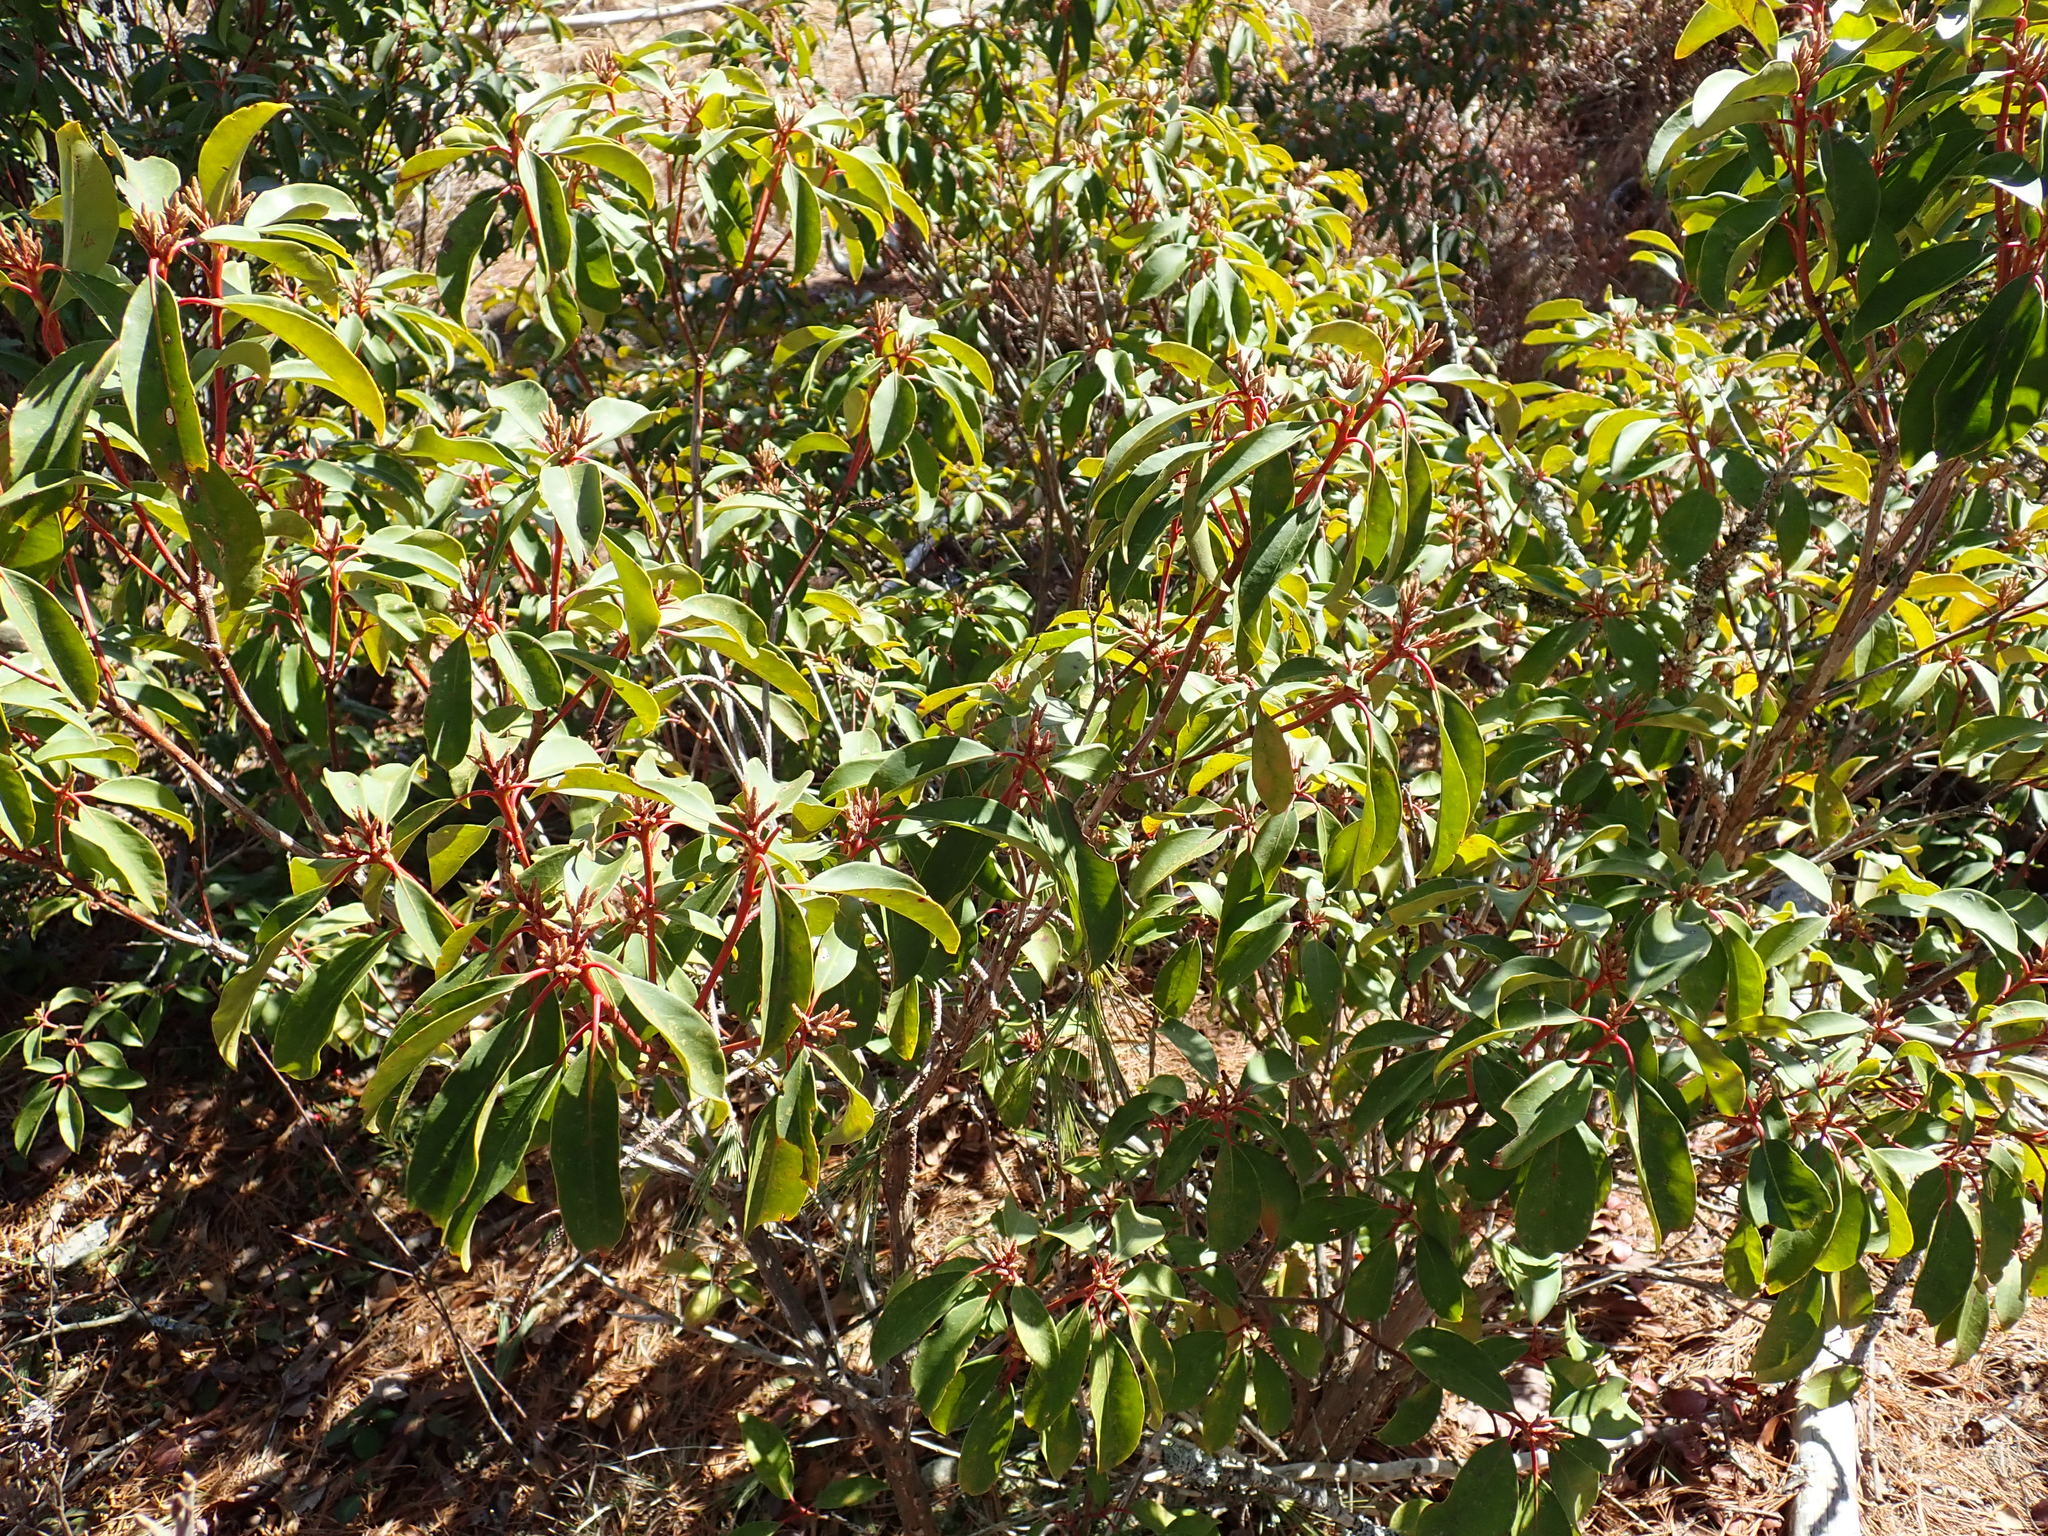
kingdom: Plantae
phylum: Tracheophyta
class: Magnoliopsida
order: Ericales
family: Ericaceae
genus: Kalmia
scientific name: Kalmia latifolia
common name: Mountain-laurel
